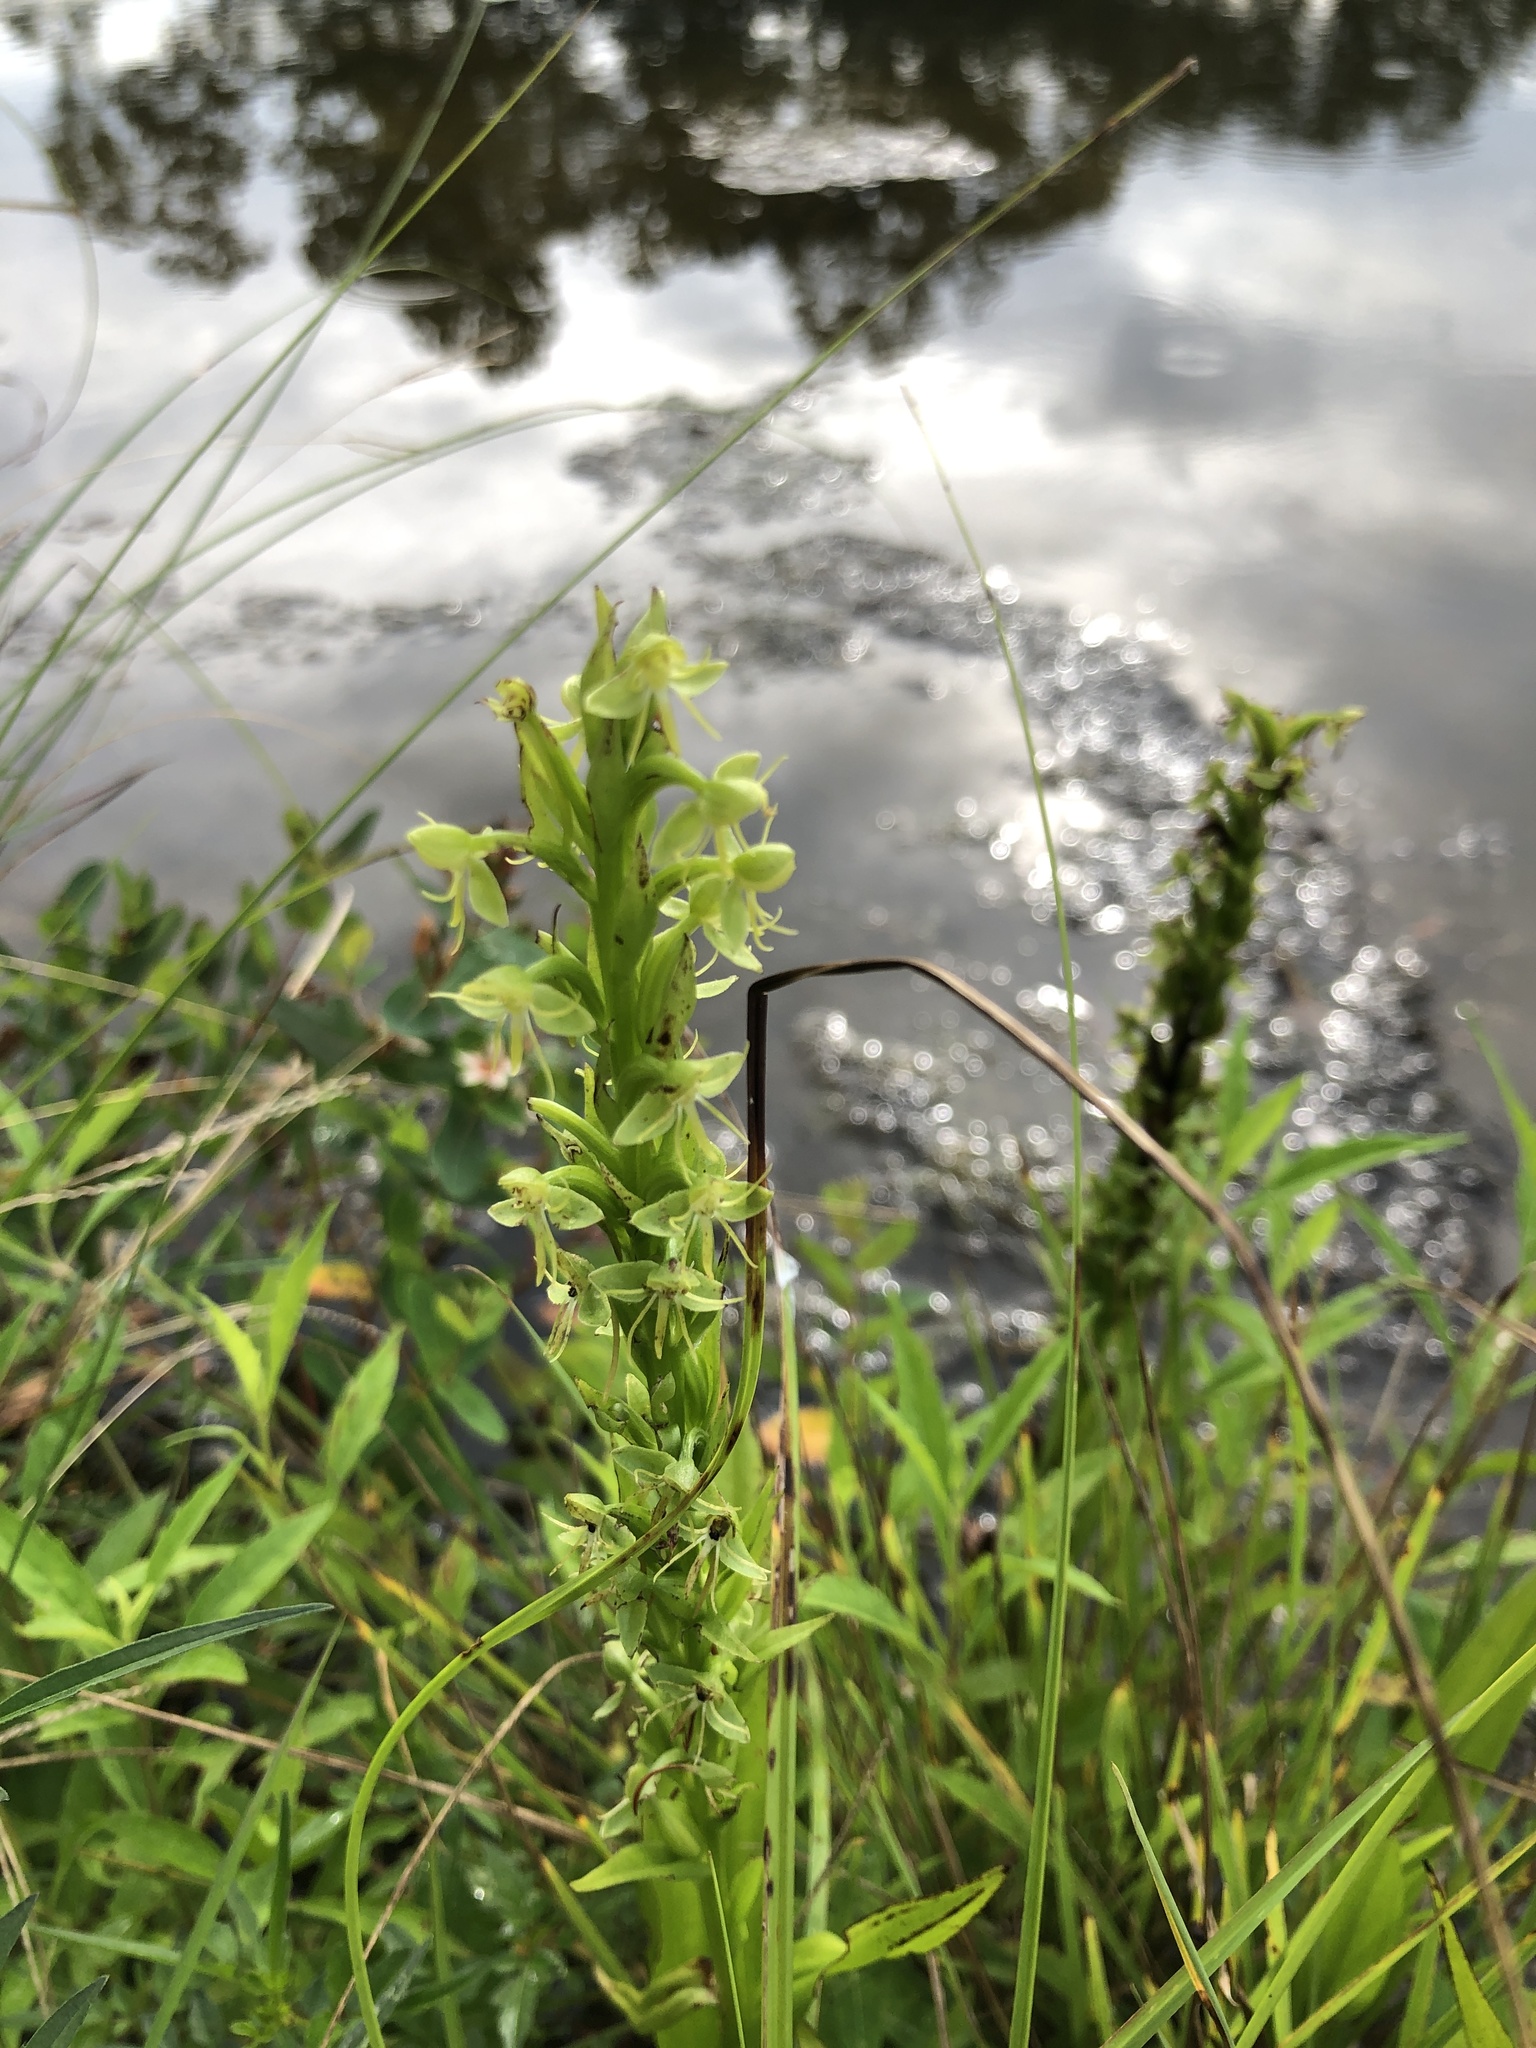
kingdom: Plantae
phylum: Tracheophyta
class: Liliopsida
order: Asparagales
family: Orchidaceae
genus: Habenaria
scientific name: Habenaria repens
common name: Water orchid
